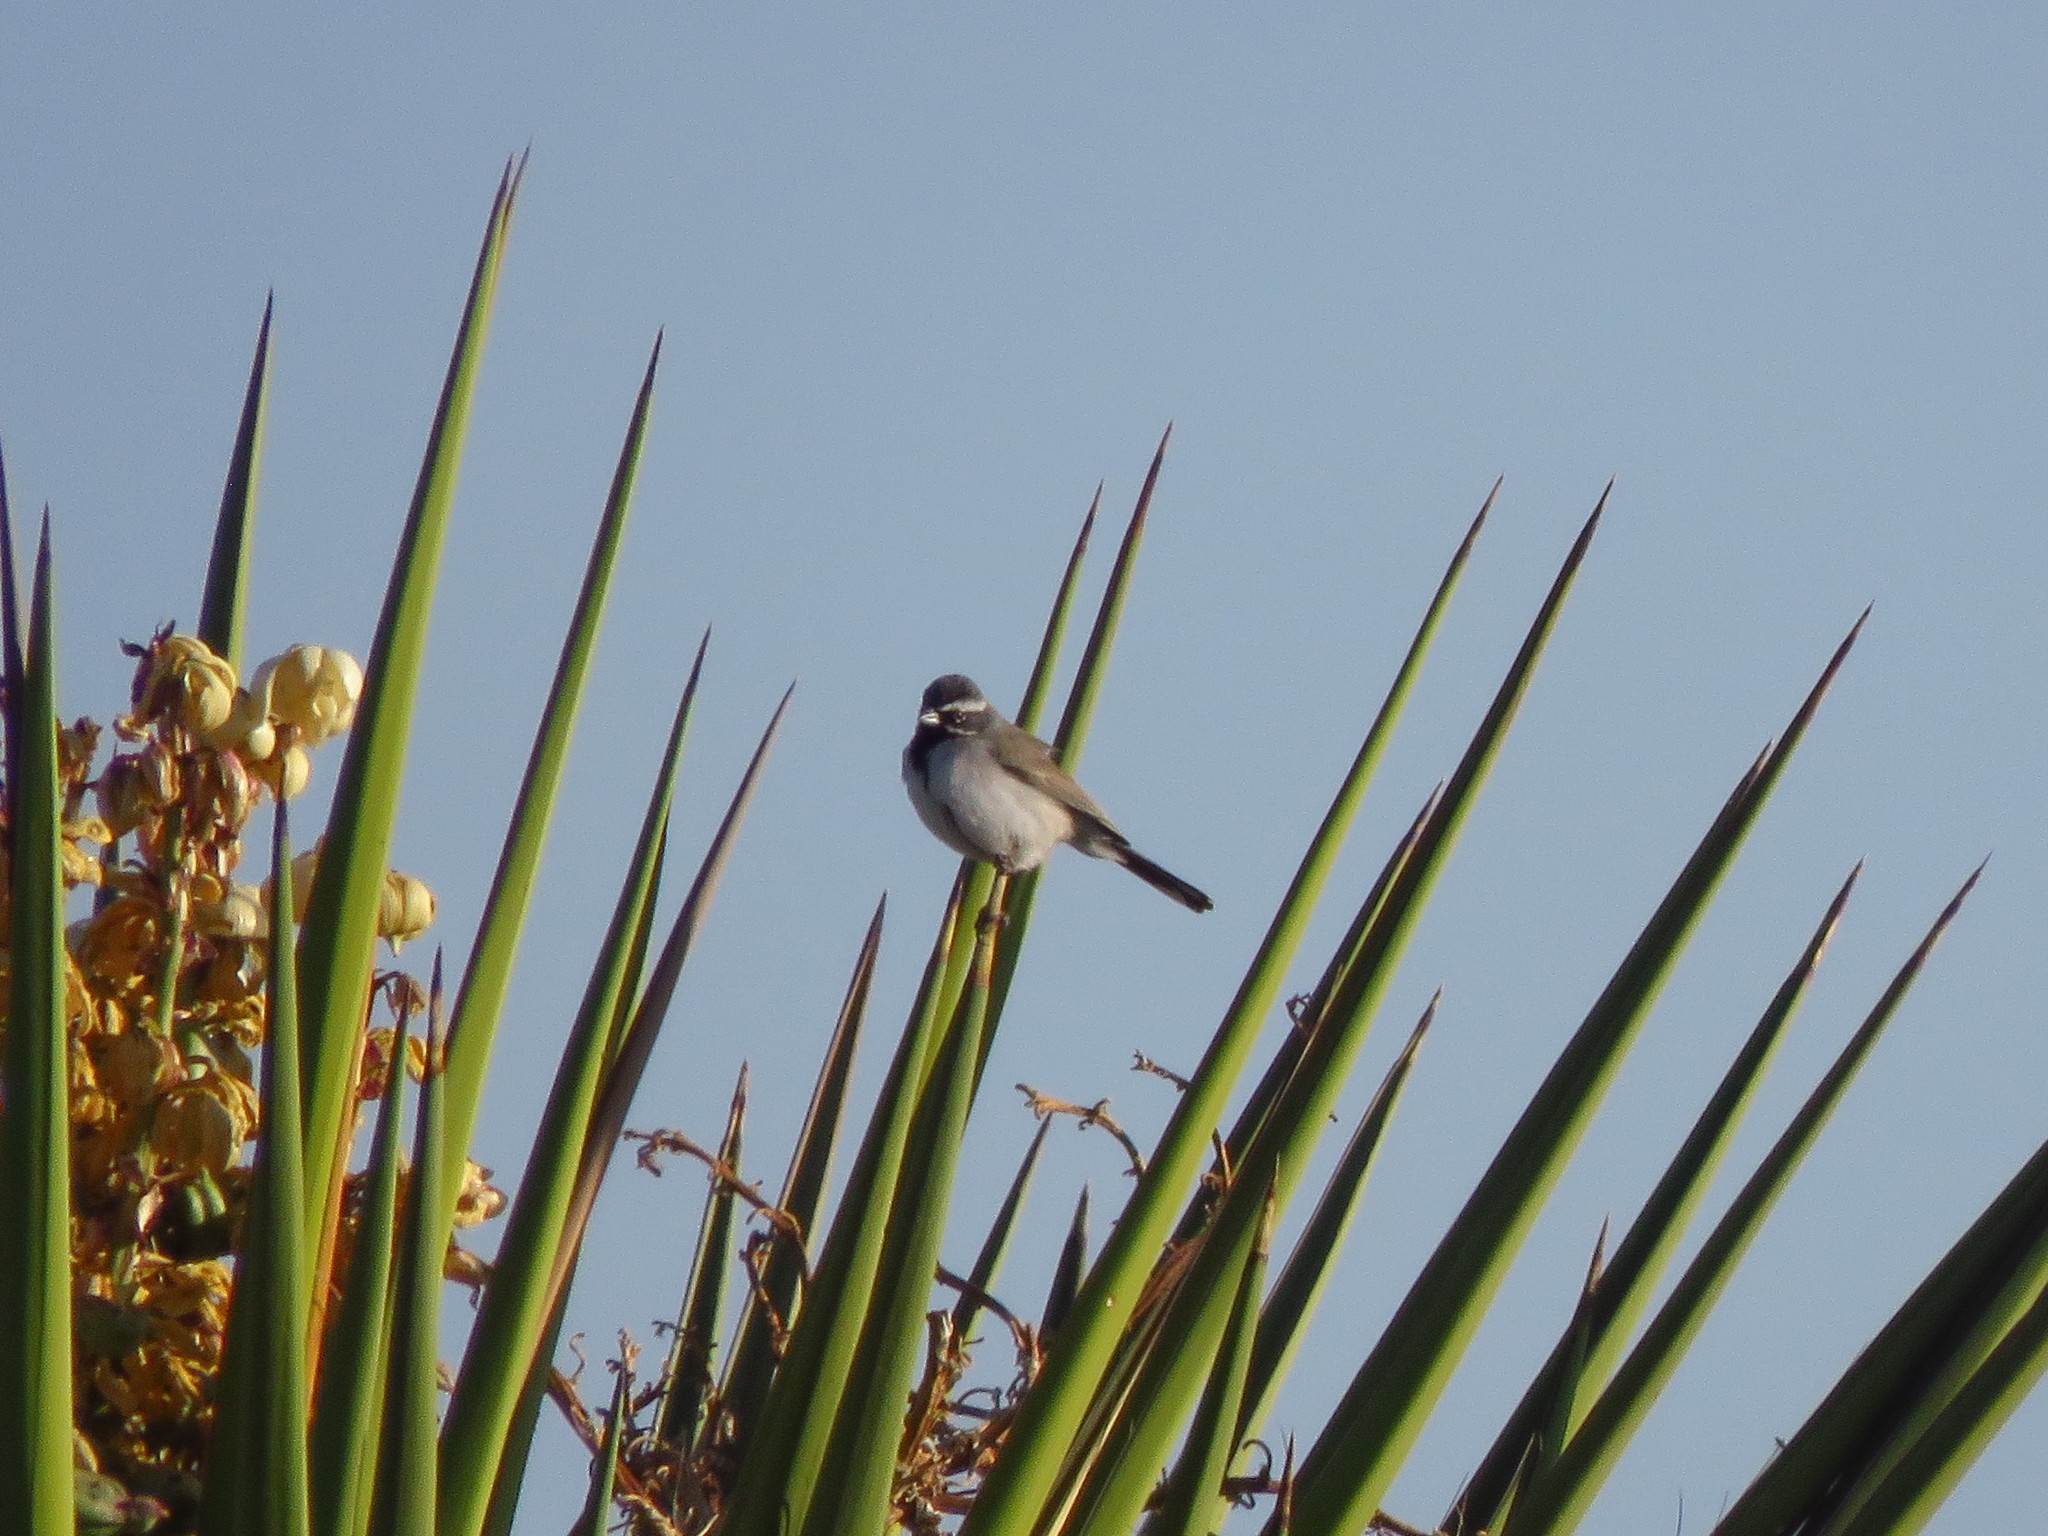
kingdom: Animalia
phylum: Chordata
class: Aves
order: Passeriformes
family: Passerellidae
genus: Amphispiza
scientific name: Amphispiza bilineata
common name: Black-throated sparrow
